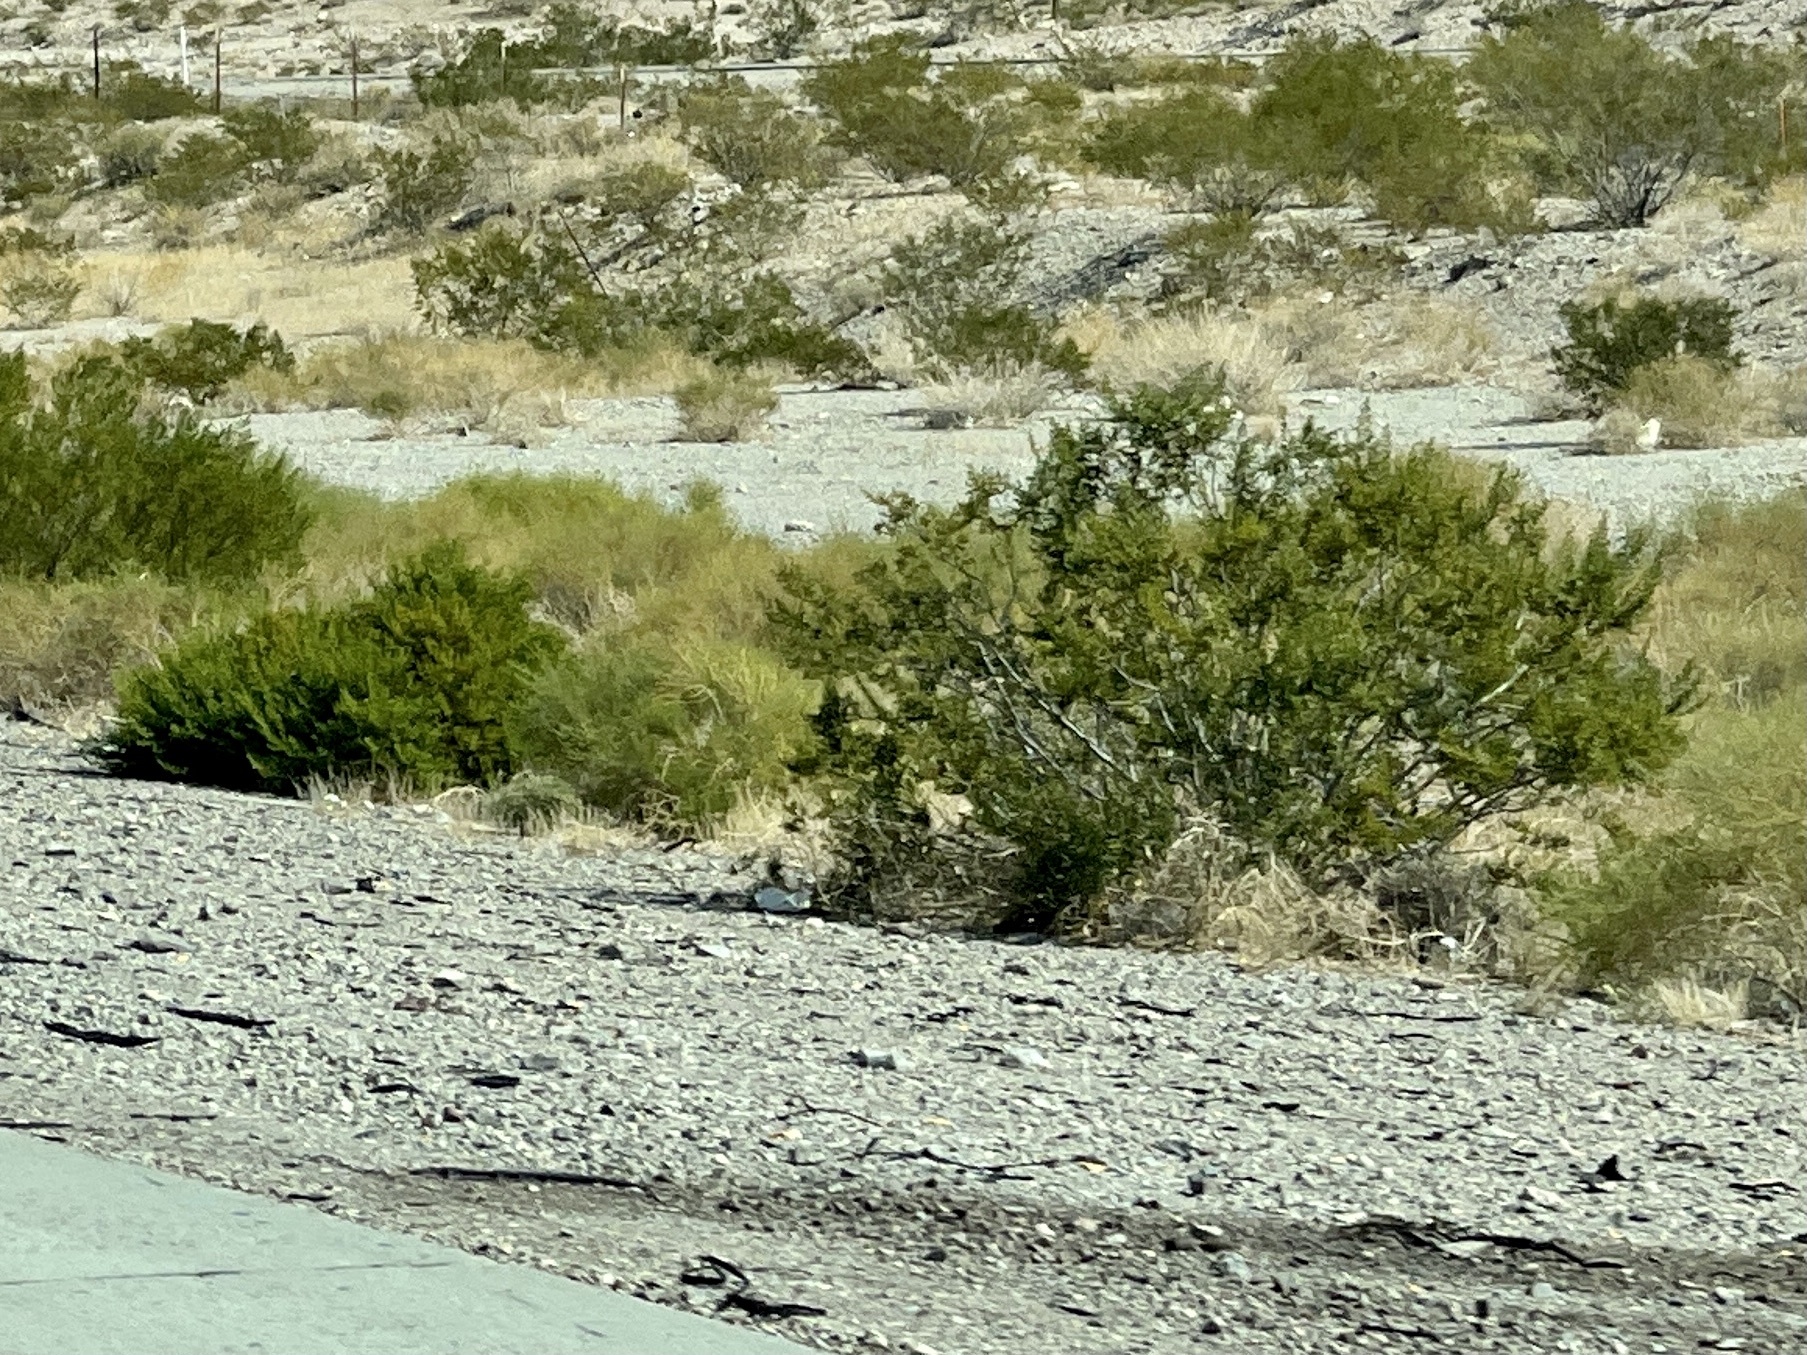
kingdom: Plantae
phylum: Tracheophyta
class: Magnoliopsida
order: Zygophyllales
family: Zygophyllaceae
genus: Larrea
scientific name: Larrea tridentata
